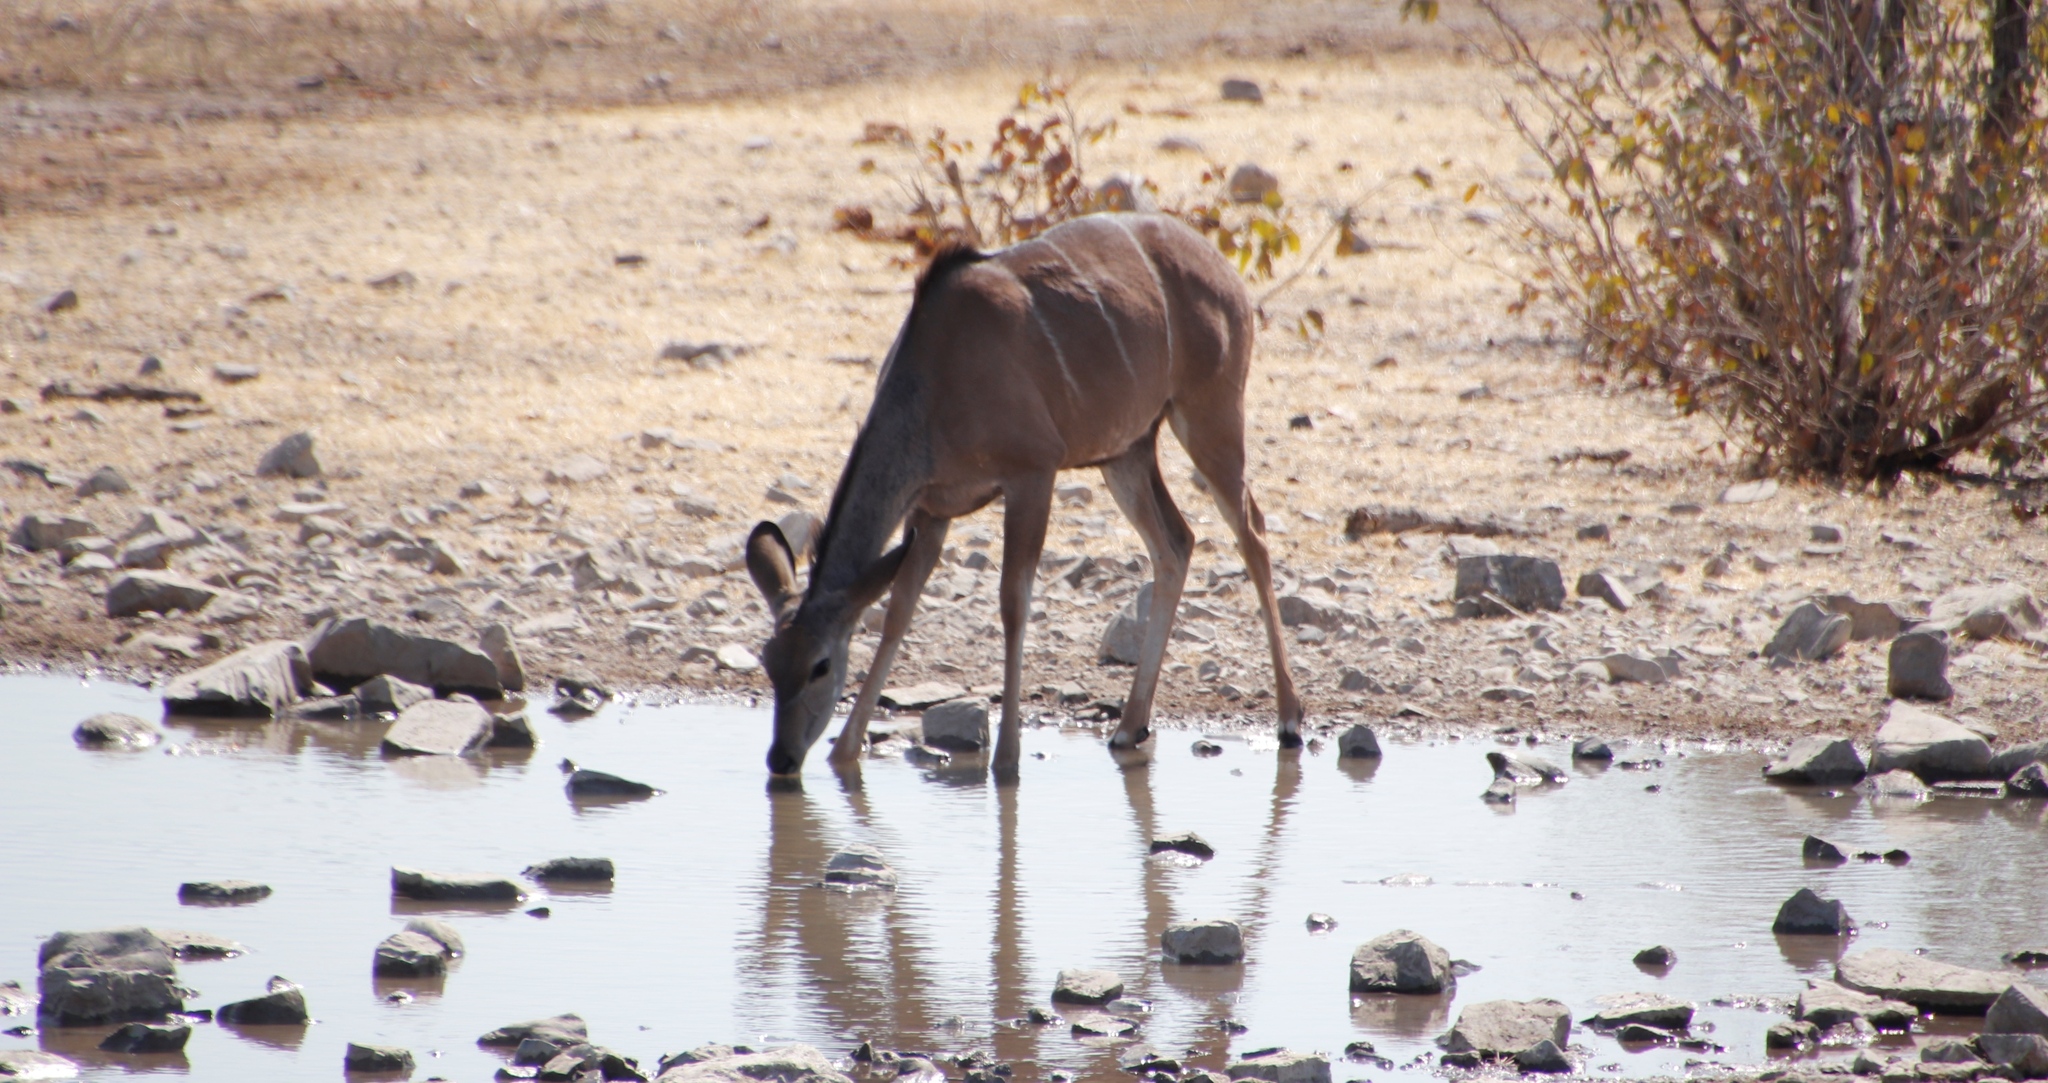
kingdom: Animalia
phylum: Chordata
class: Mammalia
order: Artiodactyla
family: Bovidae
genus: Tragelaphus
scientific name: Tragelaphus strepsiceros
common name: Greater kudu
